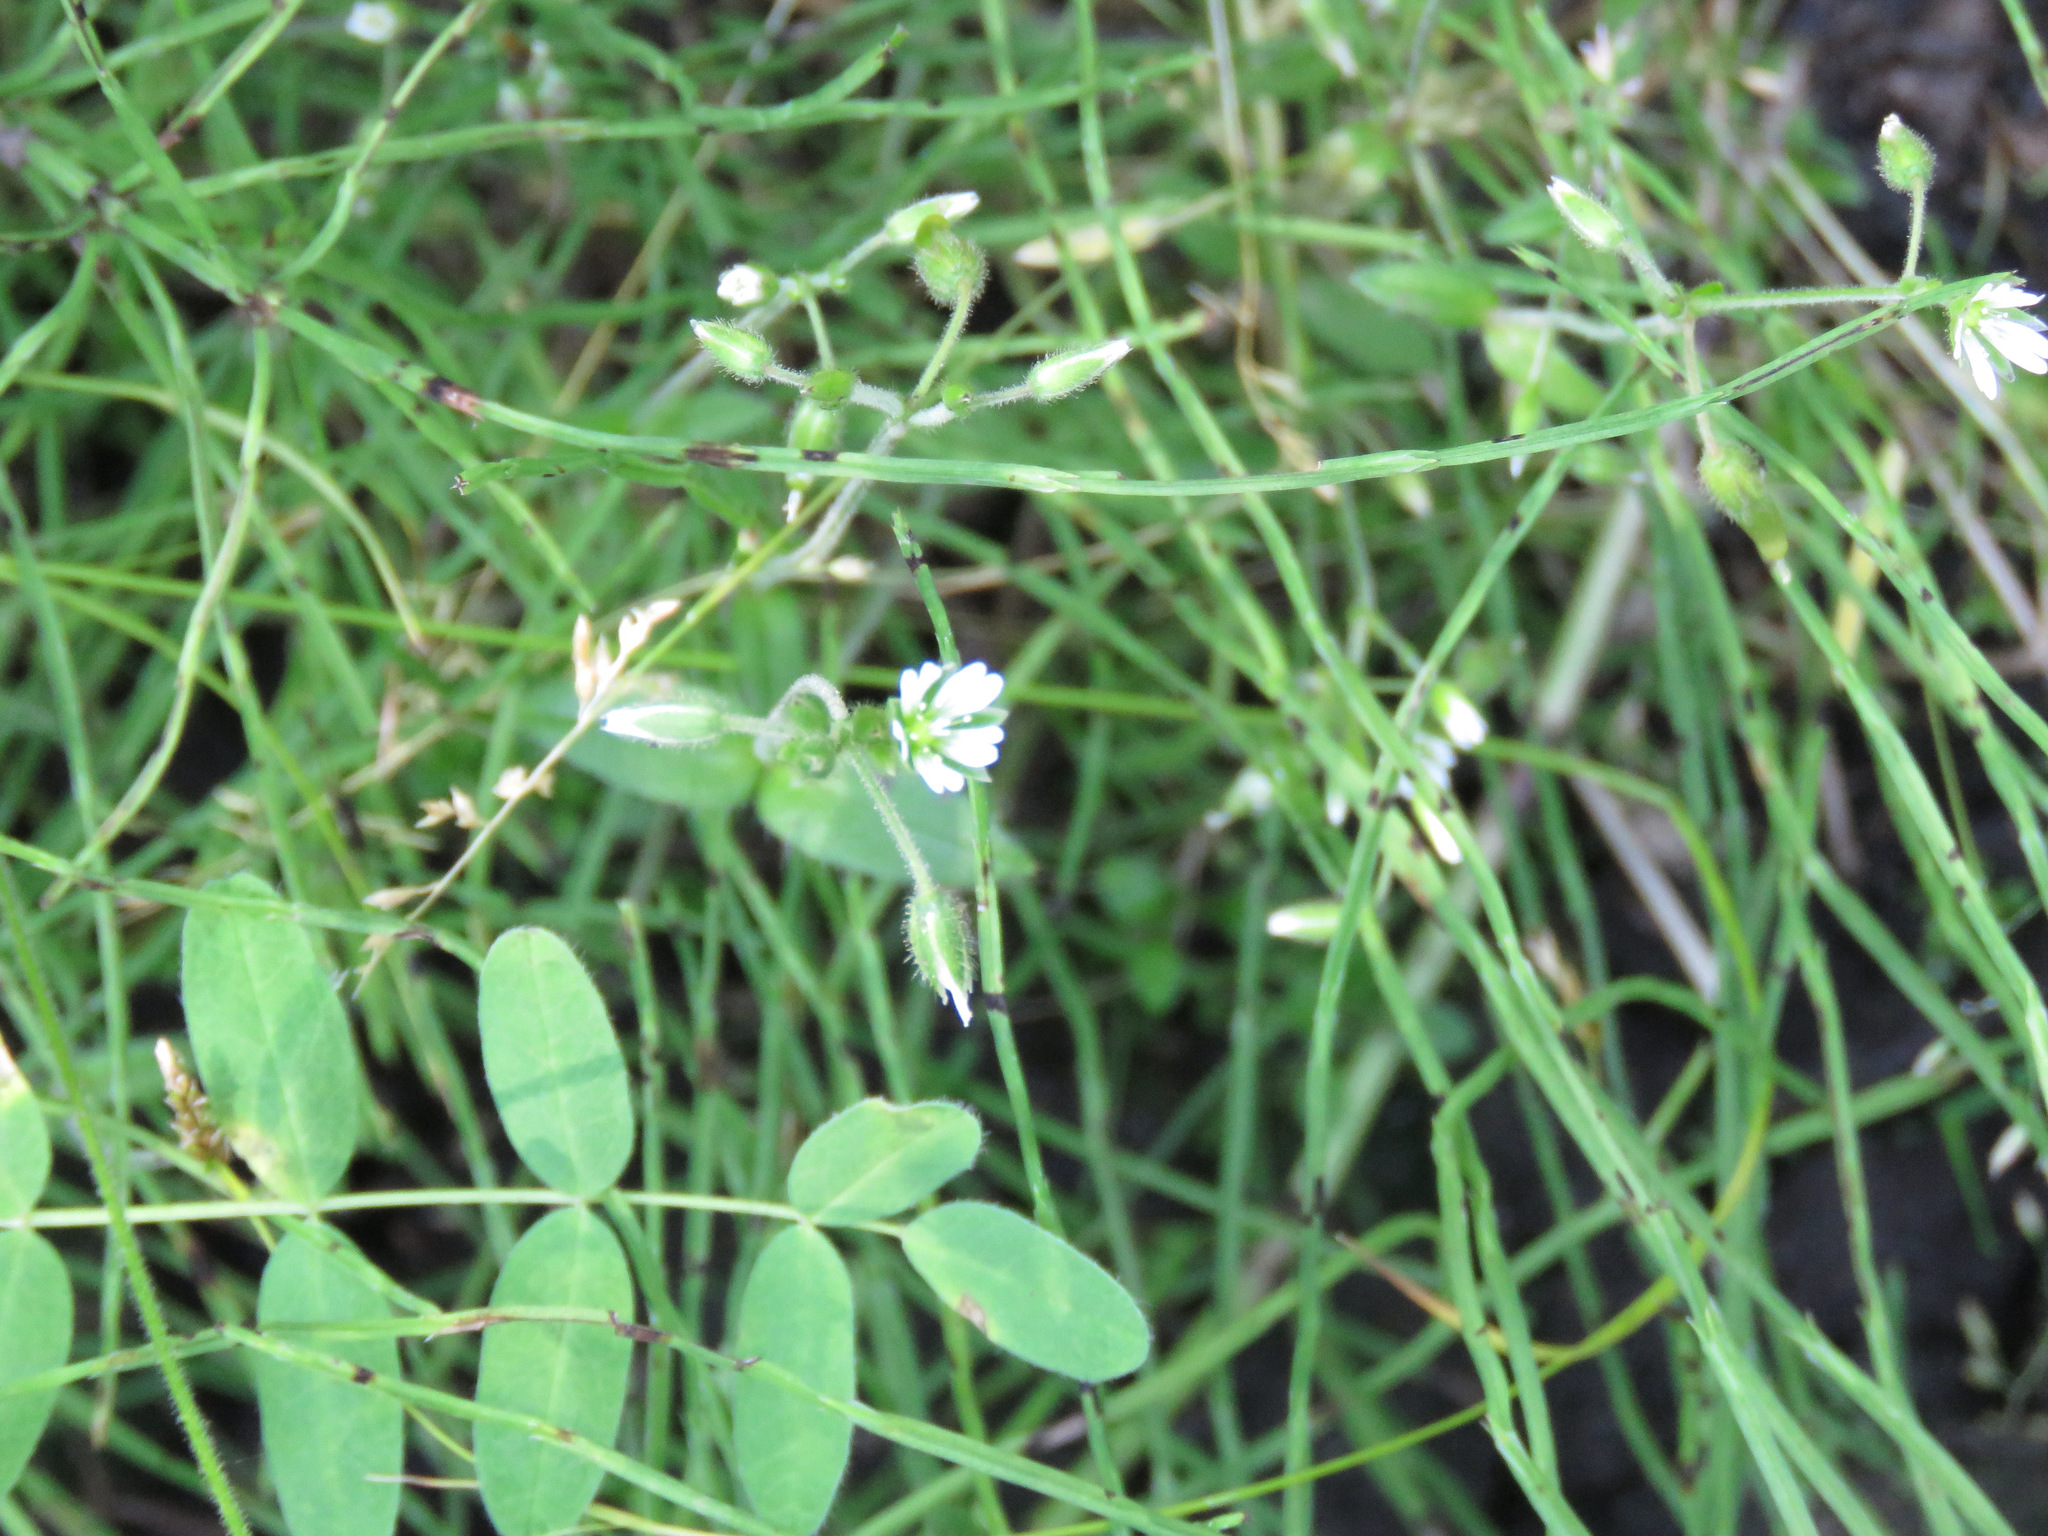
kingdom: Plantae
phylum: Tracheophyta
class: Magnoliopsida
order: Caryophyllales
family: Caryophyllaceae
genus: Cerastium
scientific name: Cerastium fontanum
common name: Common mouse-ear
